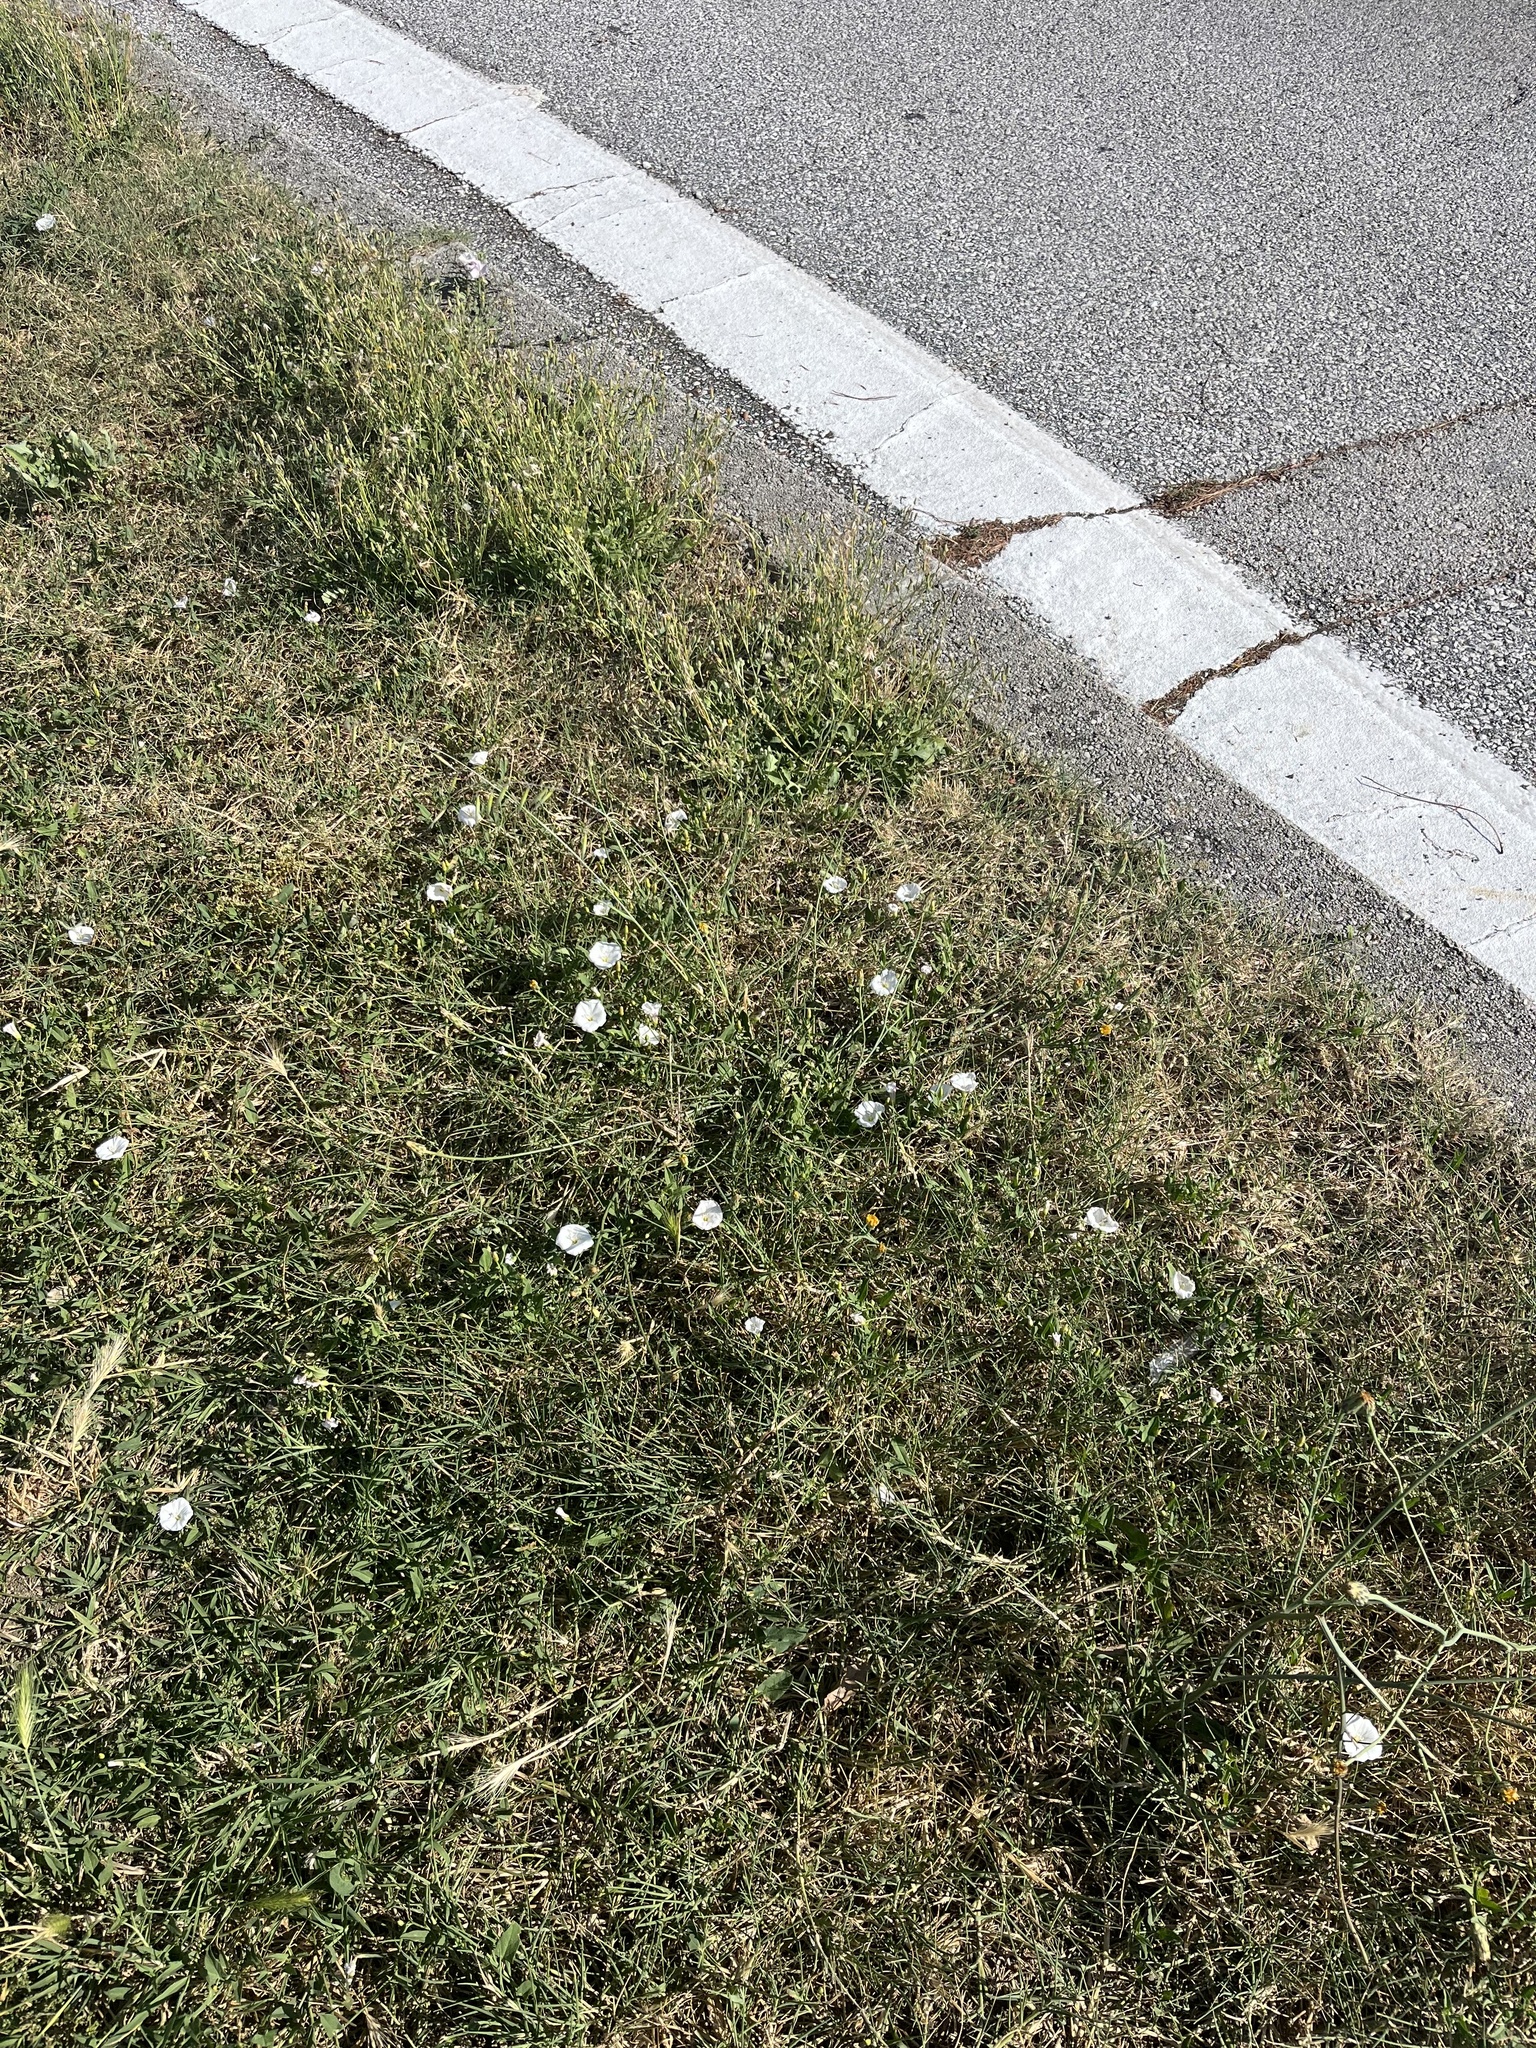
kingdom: Plantae
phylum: Tracheophyta
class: Magnoliopsida
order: Solanales
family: Convolvulaceae
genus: Convolvulus
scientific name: Convolvulus arvensis
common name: Field bindweed
